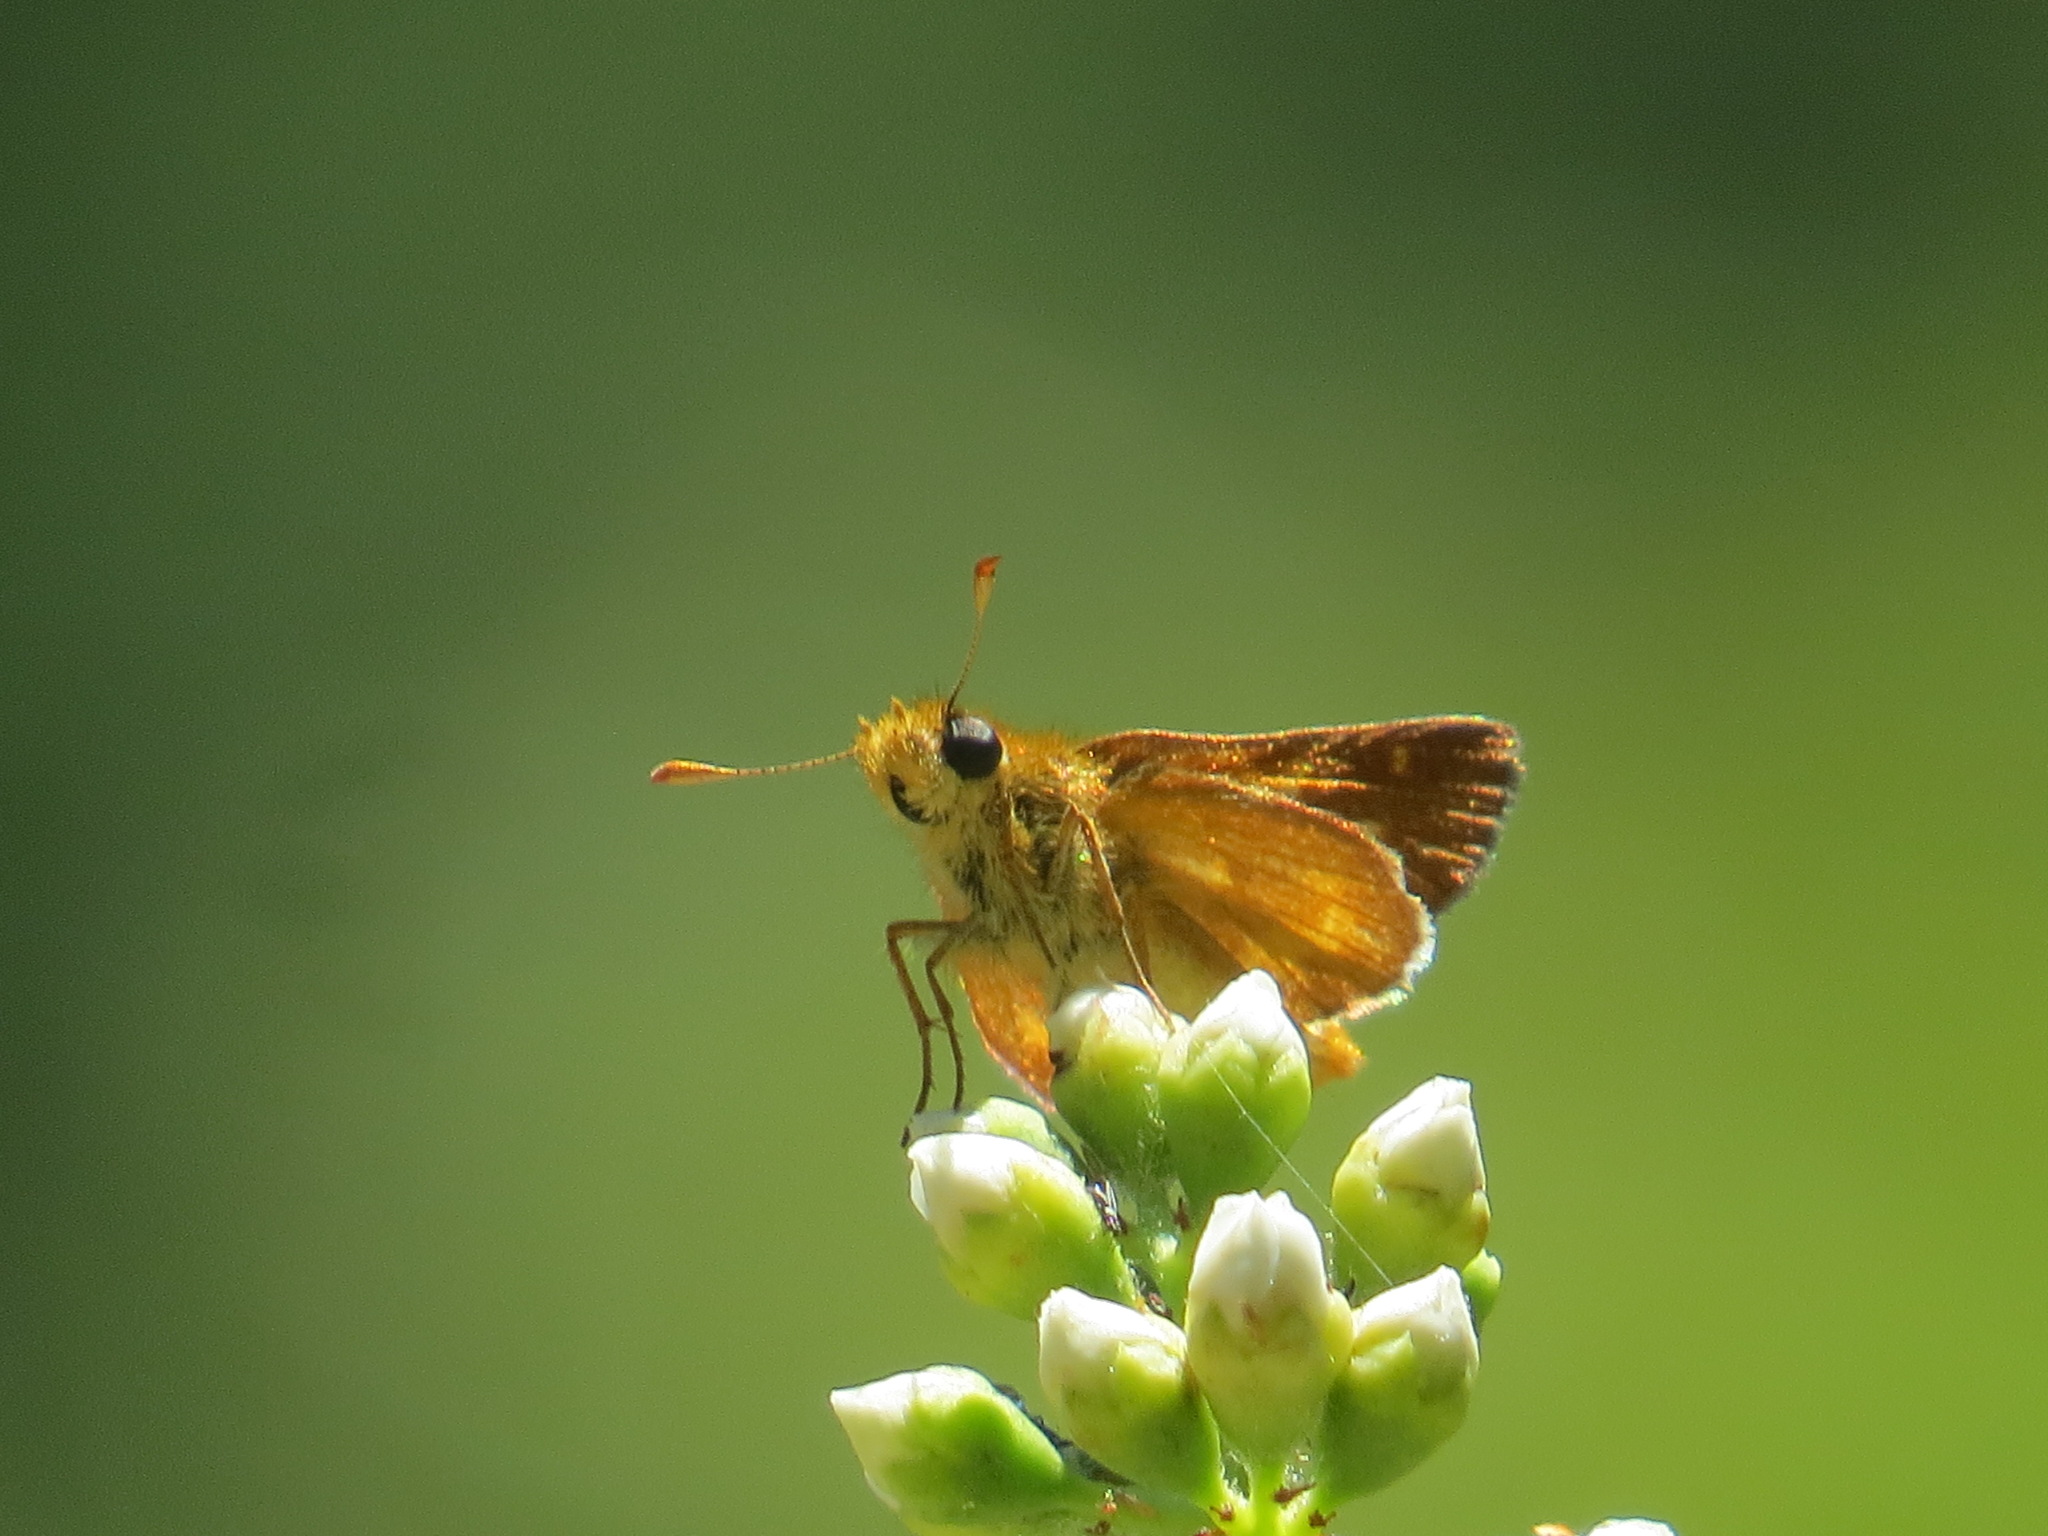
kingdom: Animalia
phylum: Arthropoda
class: Insecta
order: Lepidoptera
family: Hesperiidae
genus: Ochlodes
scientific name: Ochlodes agricola
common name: Rural skipper
